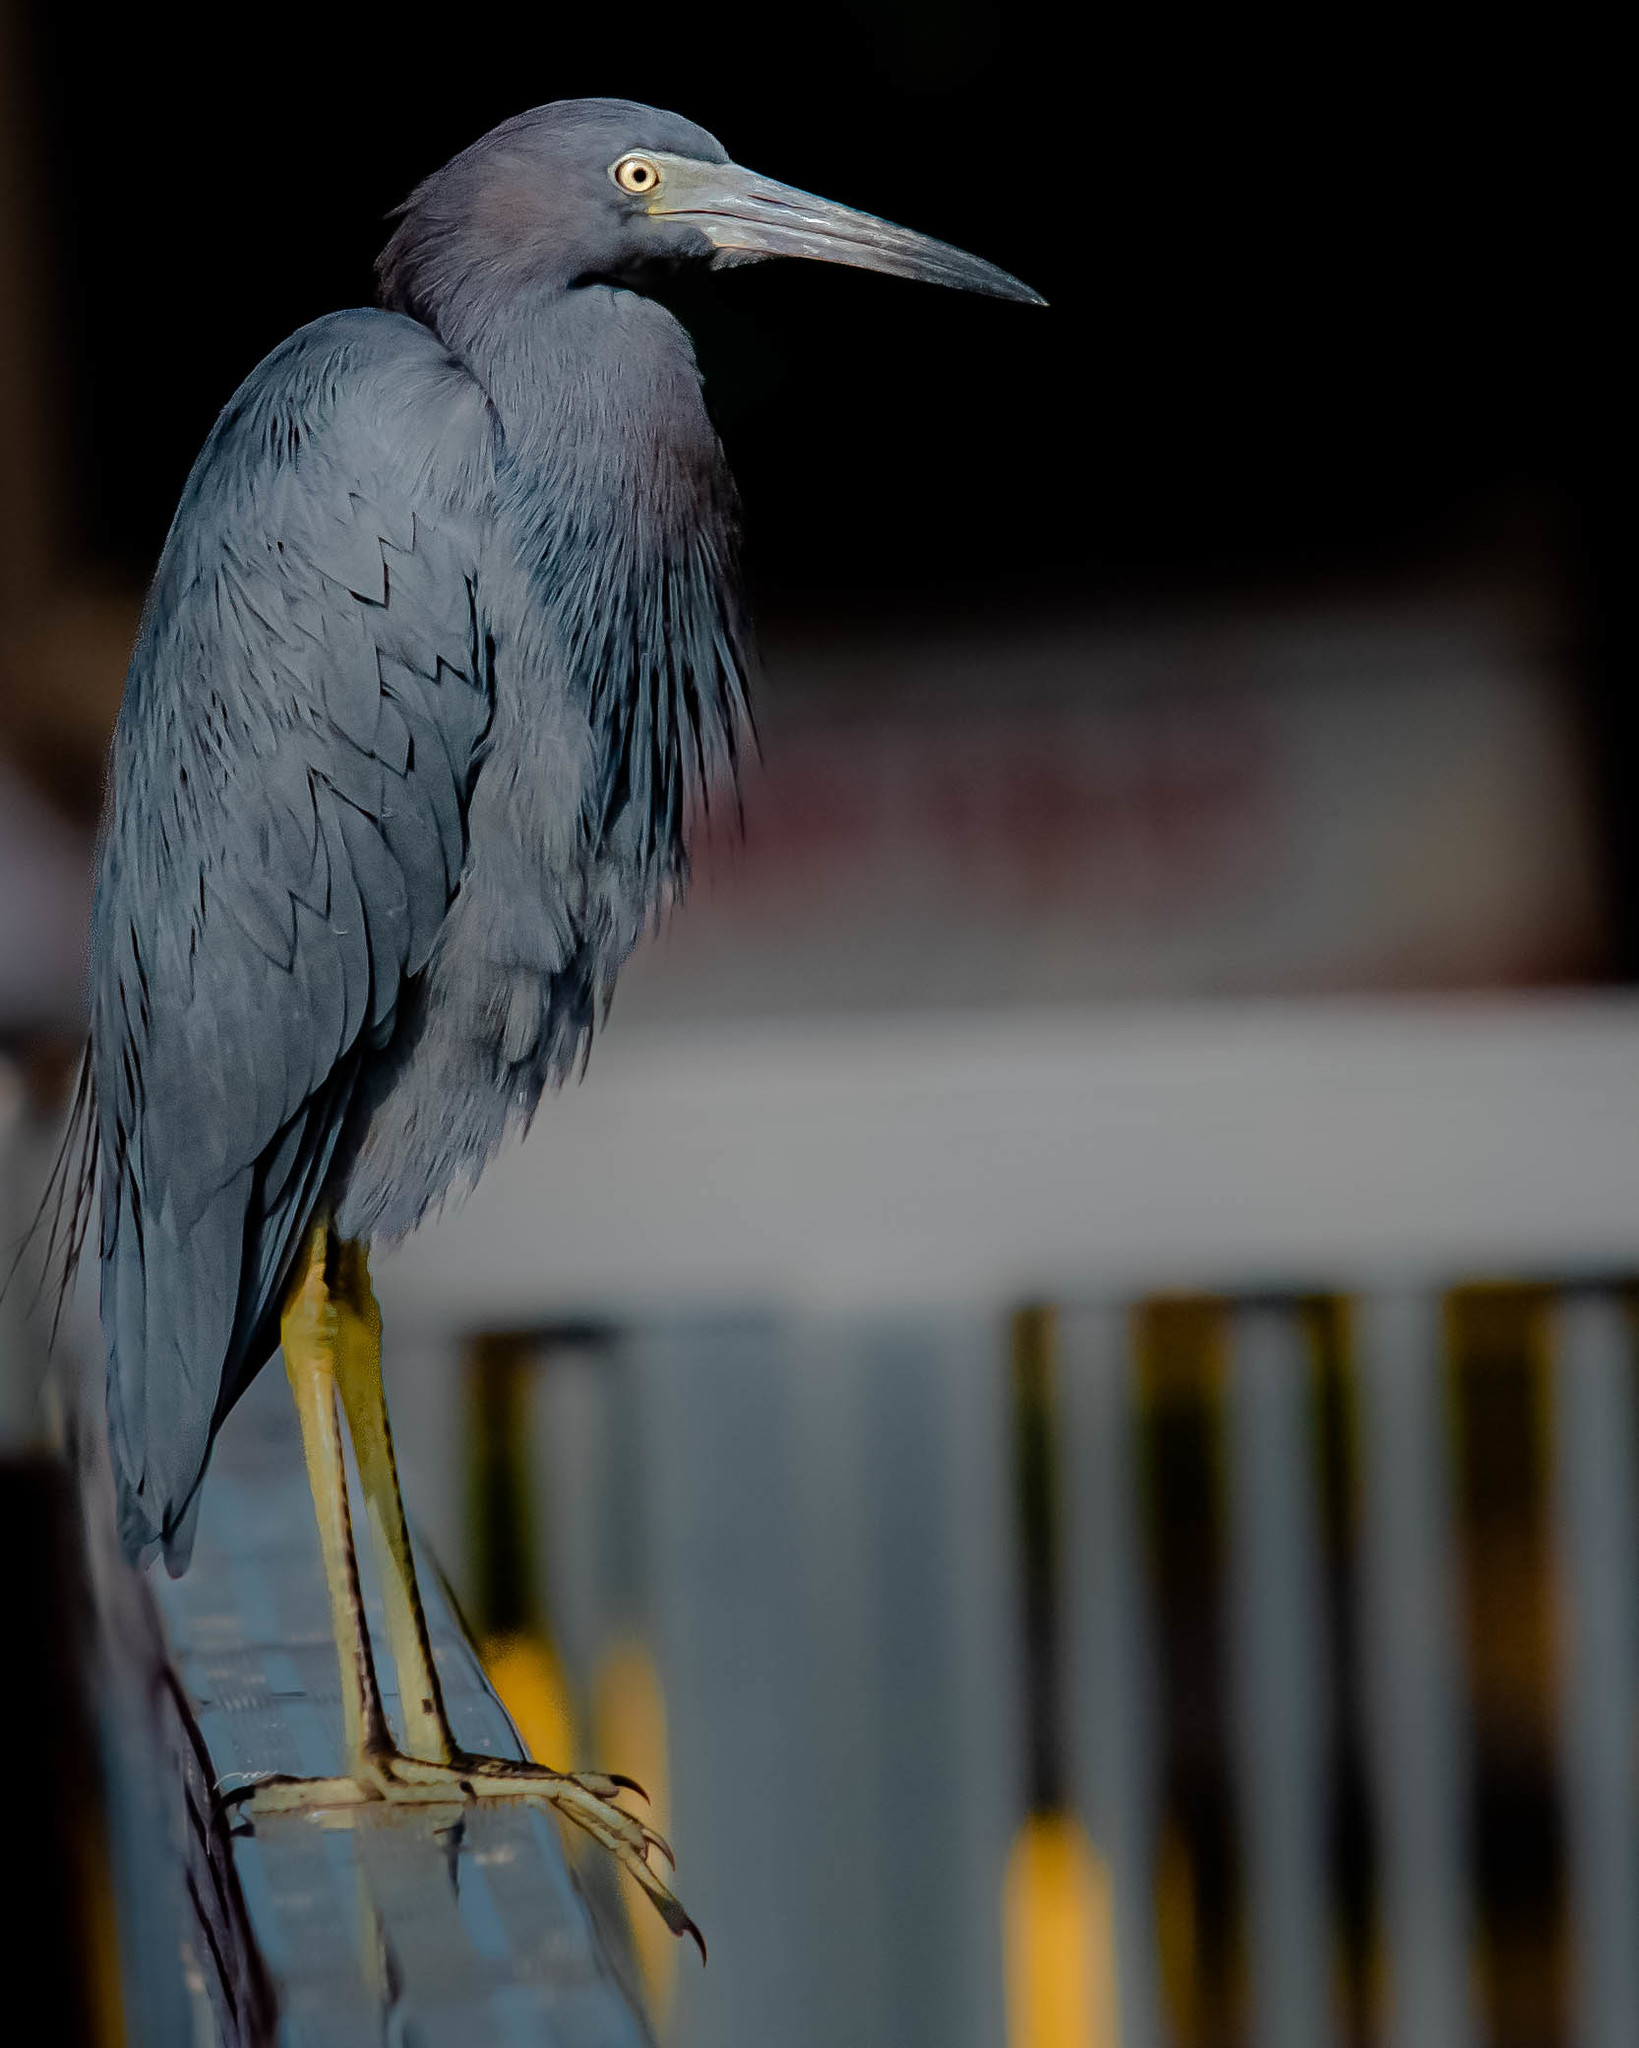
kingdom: Animalia
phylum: Chordata
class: Aves
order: Pelecaniformes
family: Ardeidae
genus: Egretta
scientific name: Egretta caerulea
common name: Little blue heron
